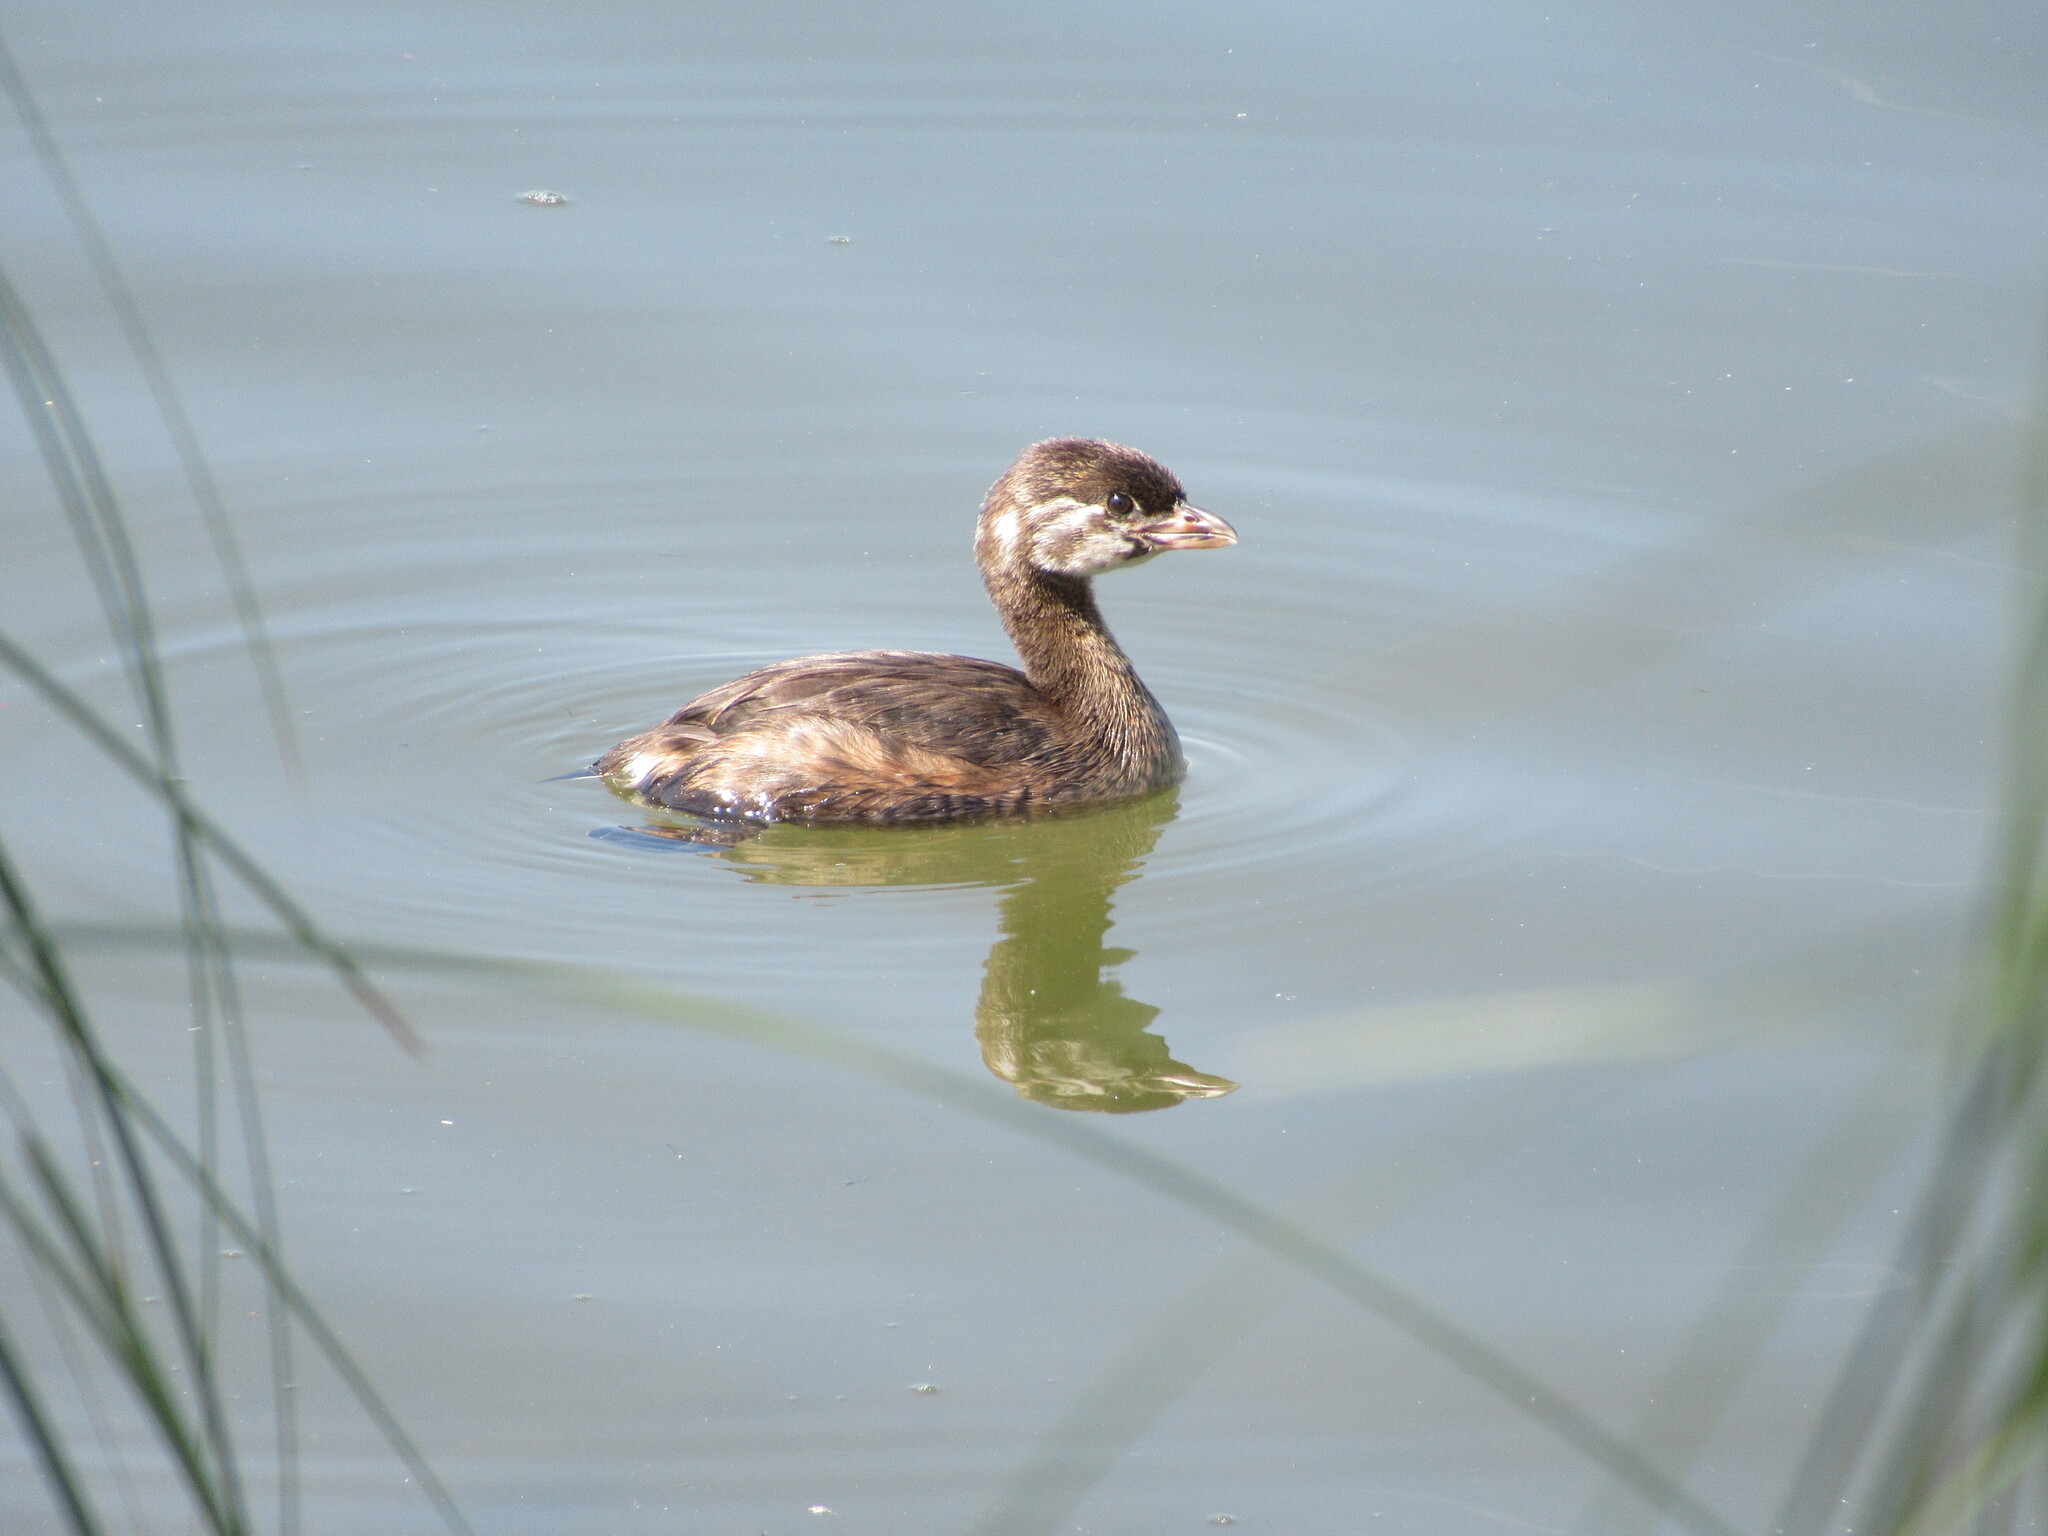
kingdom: Animalia
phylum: Chordata
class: Aves
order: Podicipediformes
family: Podicipedidae
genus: Podilymbus
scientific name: Podilymbus podiceps
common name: Pied-billed grebe
